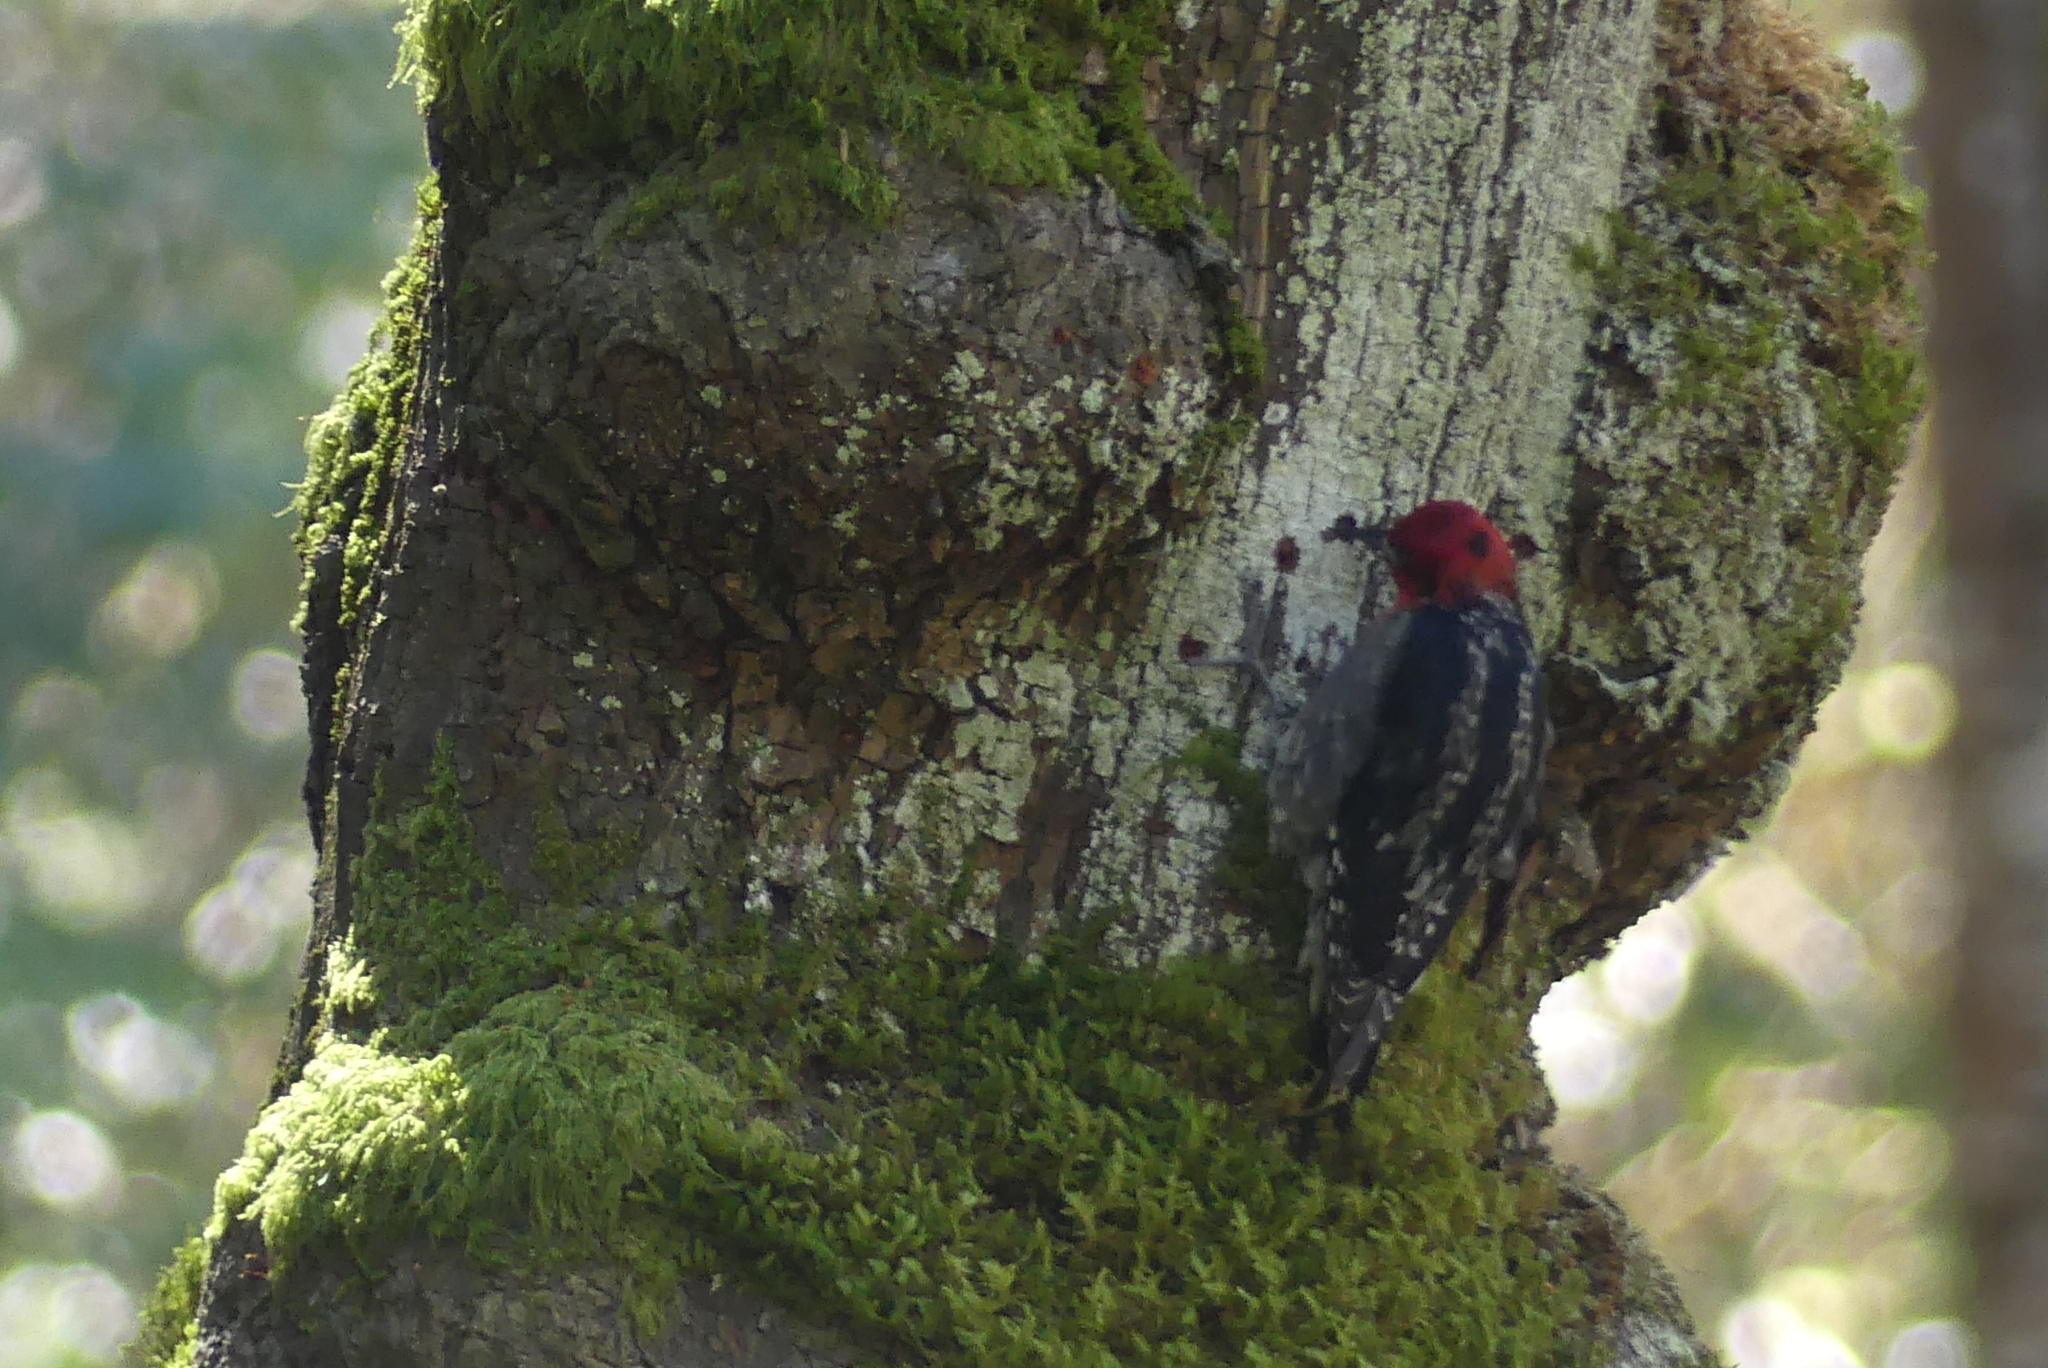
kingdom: Animalia
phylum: Chordata
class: Aves
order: Piciformes
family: Picidae
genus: Sphyrapicus
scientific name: Sphyrapicus ruber
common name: Red-breasted sapsucker
